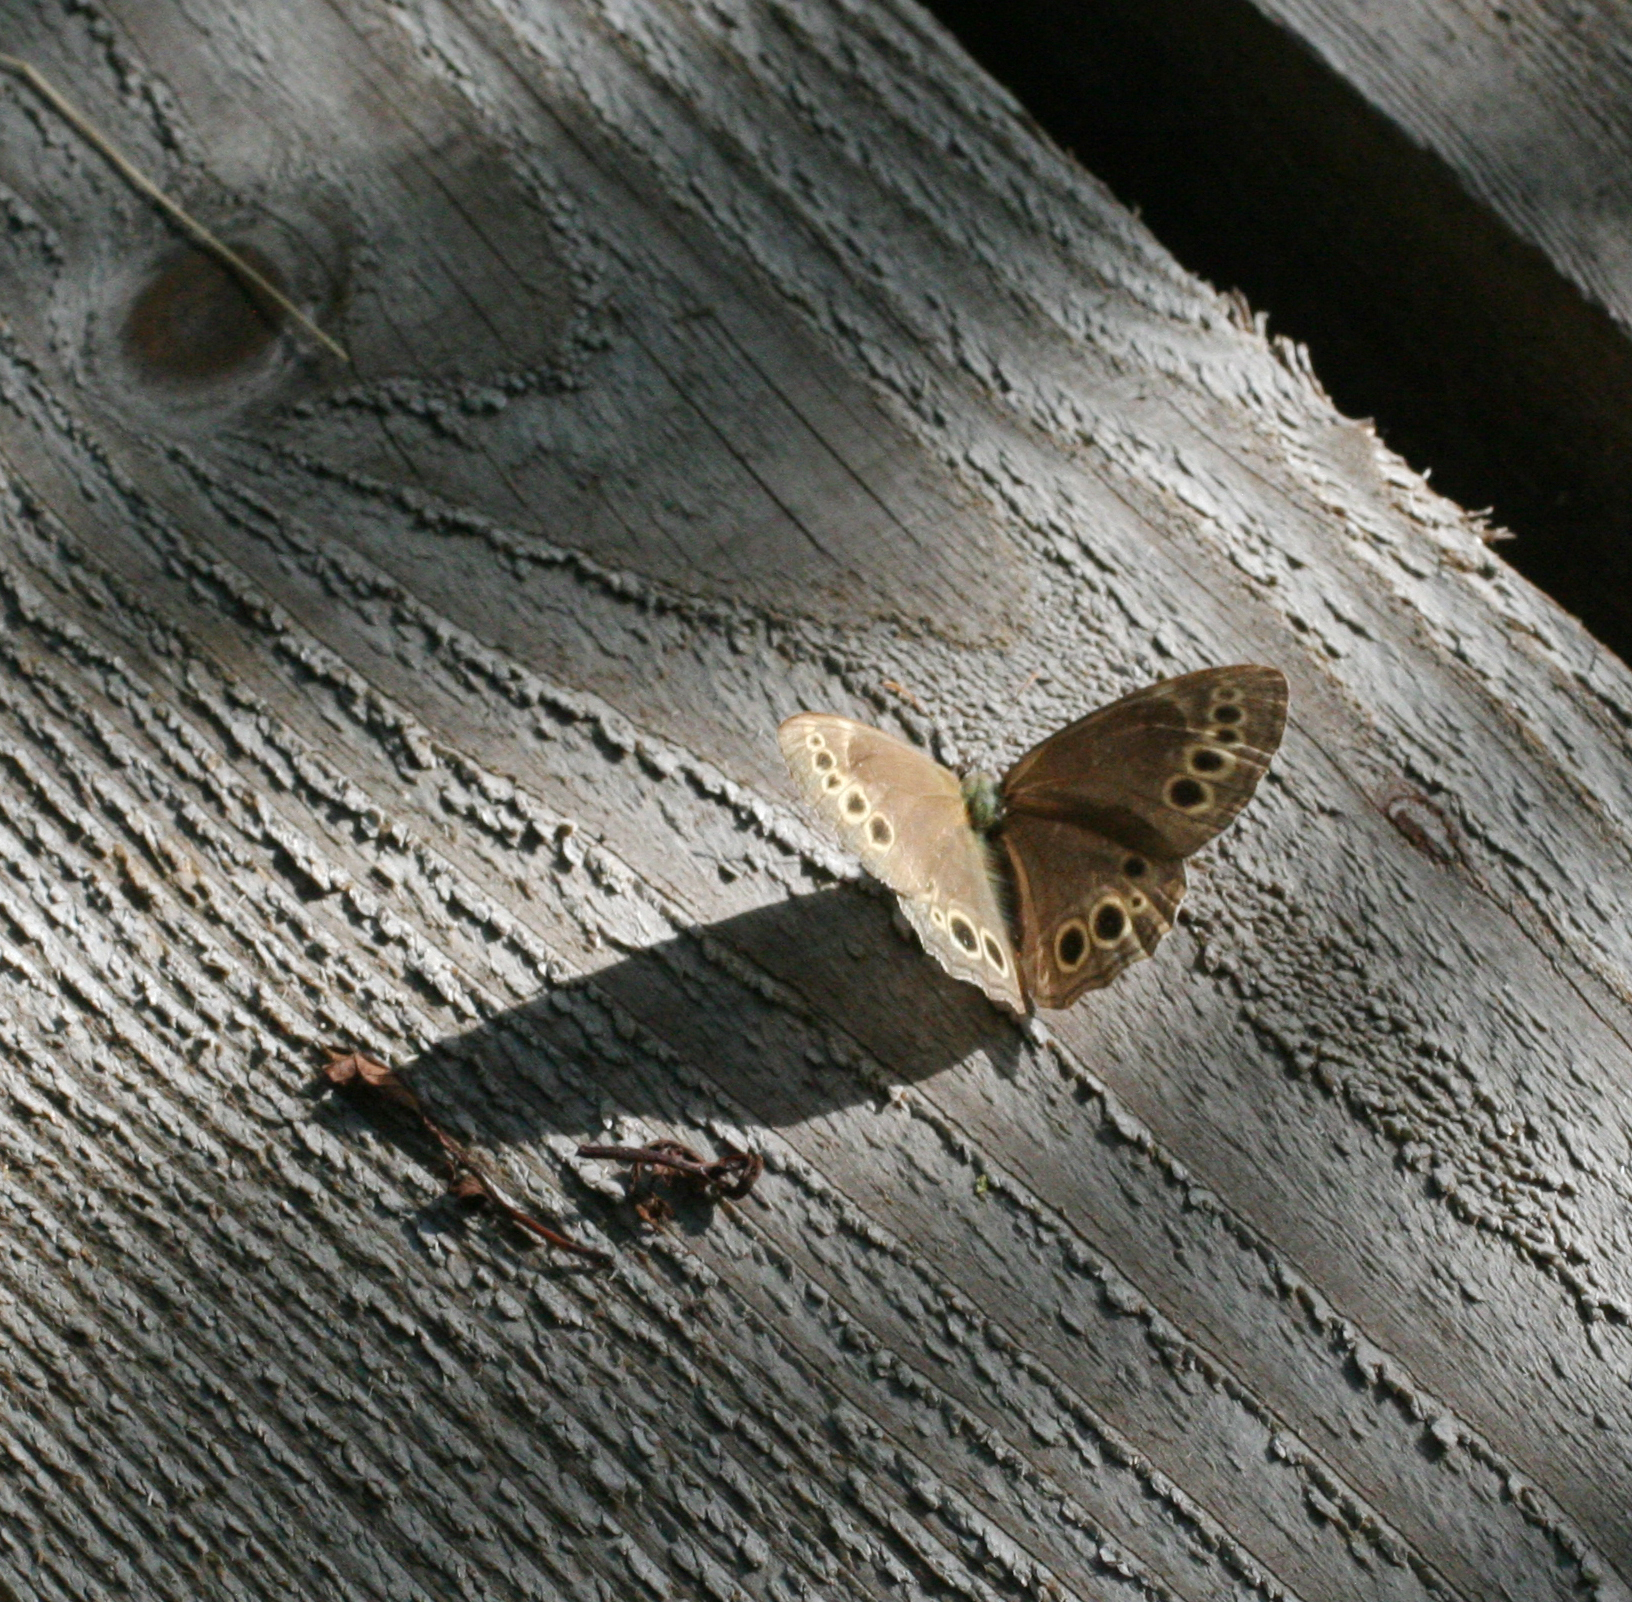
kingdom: Animalia
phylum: Arthropoda
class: Insecta
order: Lepidoptera
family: Nymphalidae
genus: Pararge
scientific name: Pararge Lopinga achine
